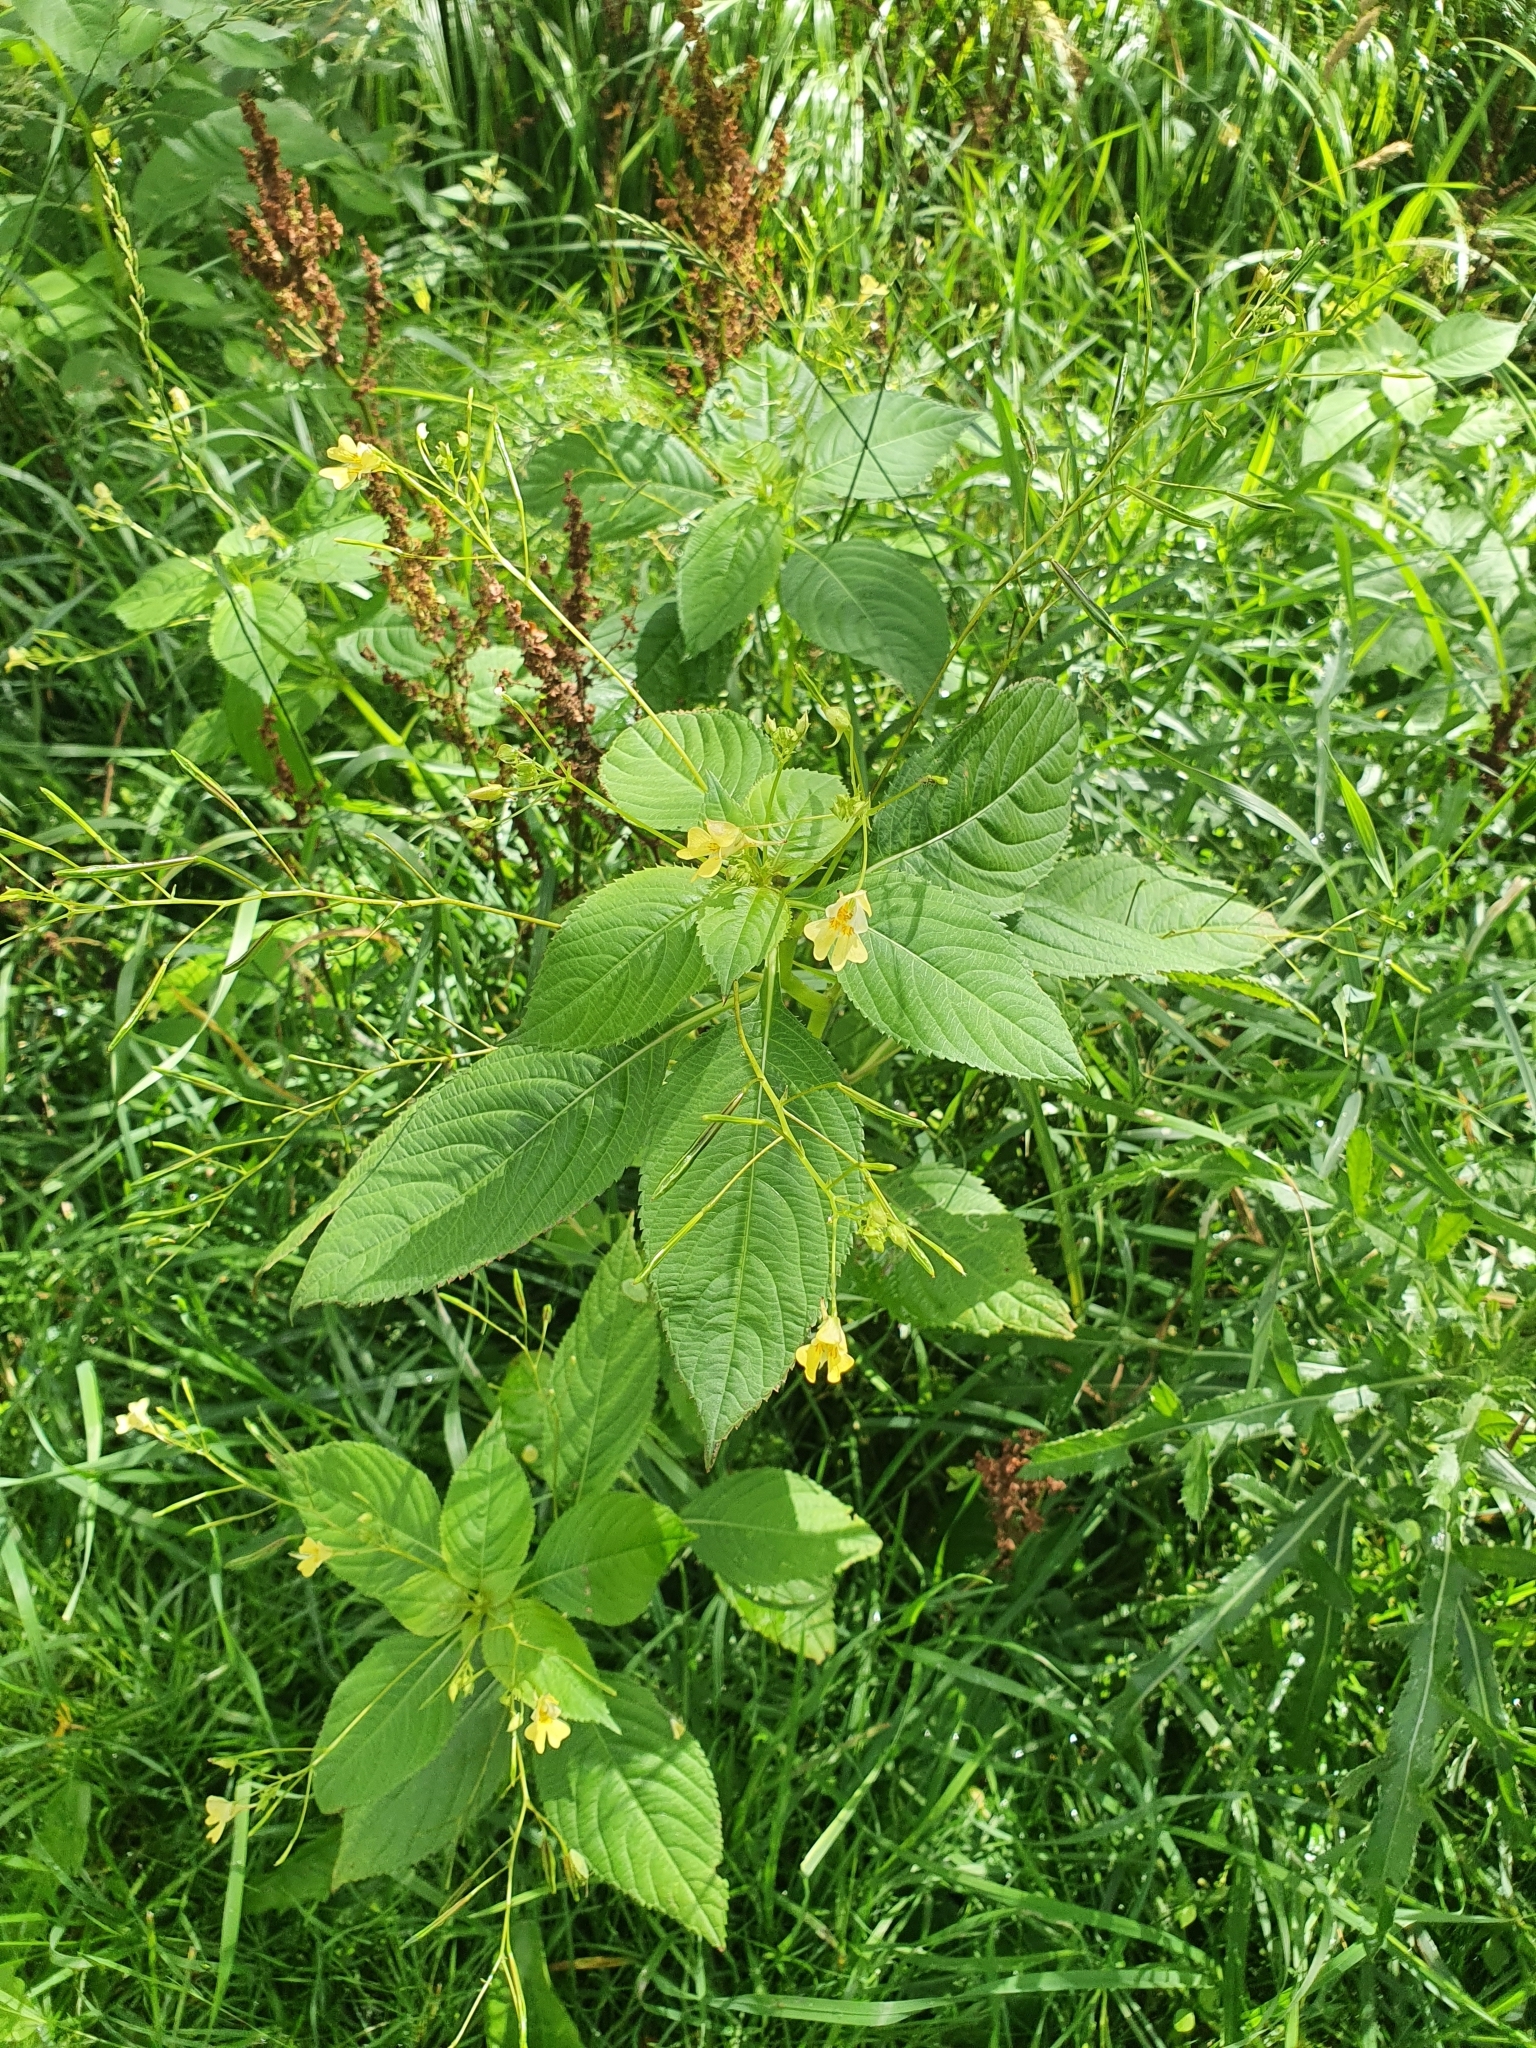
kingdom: Plantae
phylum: Tracheophyta
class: Magnoliopsida
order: Ericales
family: Balsaminaceae
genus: Impatiens
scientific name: Impatiens parviflora
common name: Small balsam
